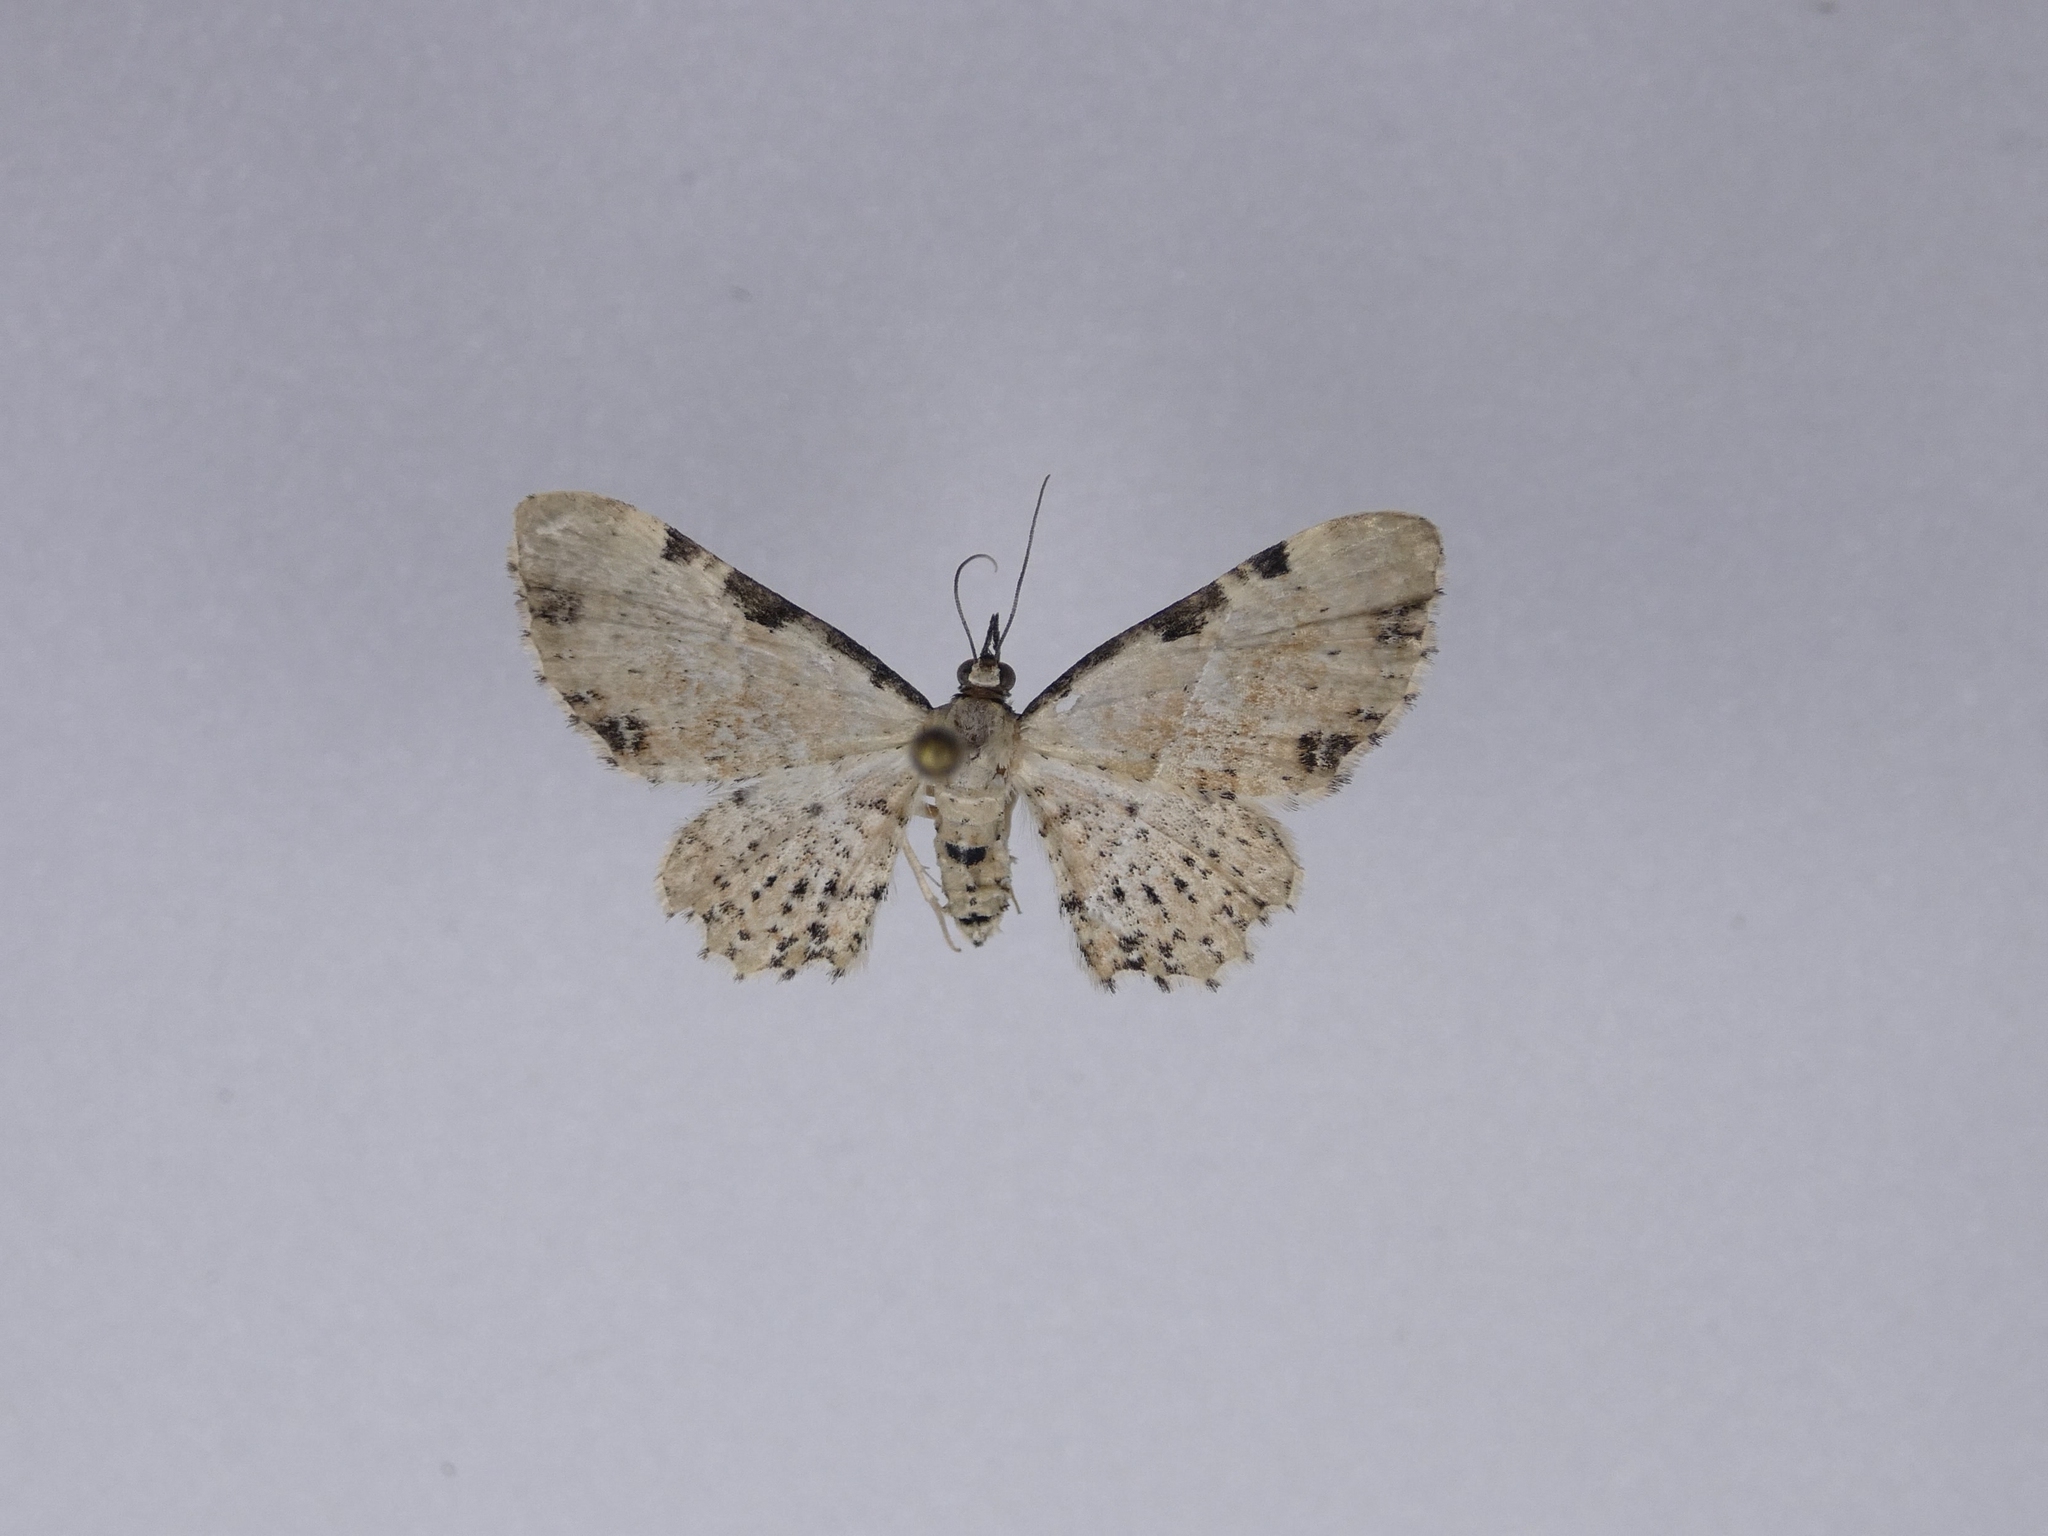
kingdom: Animalia
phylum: Arthropoda
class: Insecta
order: Lepidoptera
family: Geometridae
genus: Pasiphila
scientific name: Pasiphila fumipalpata
